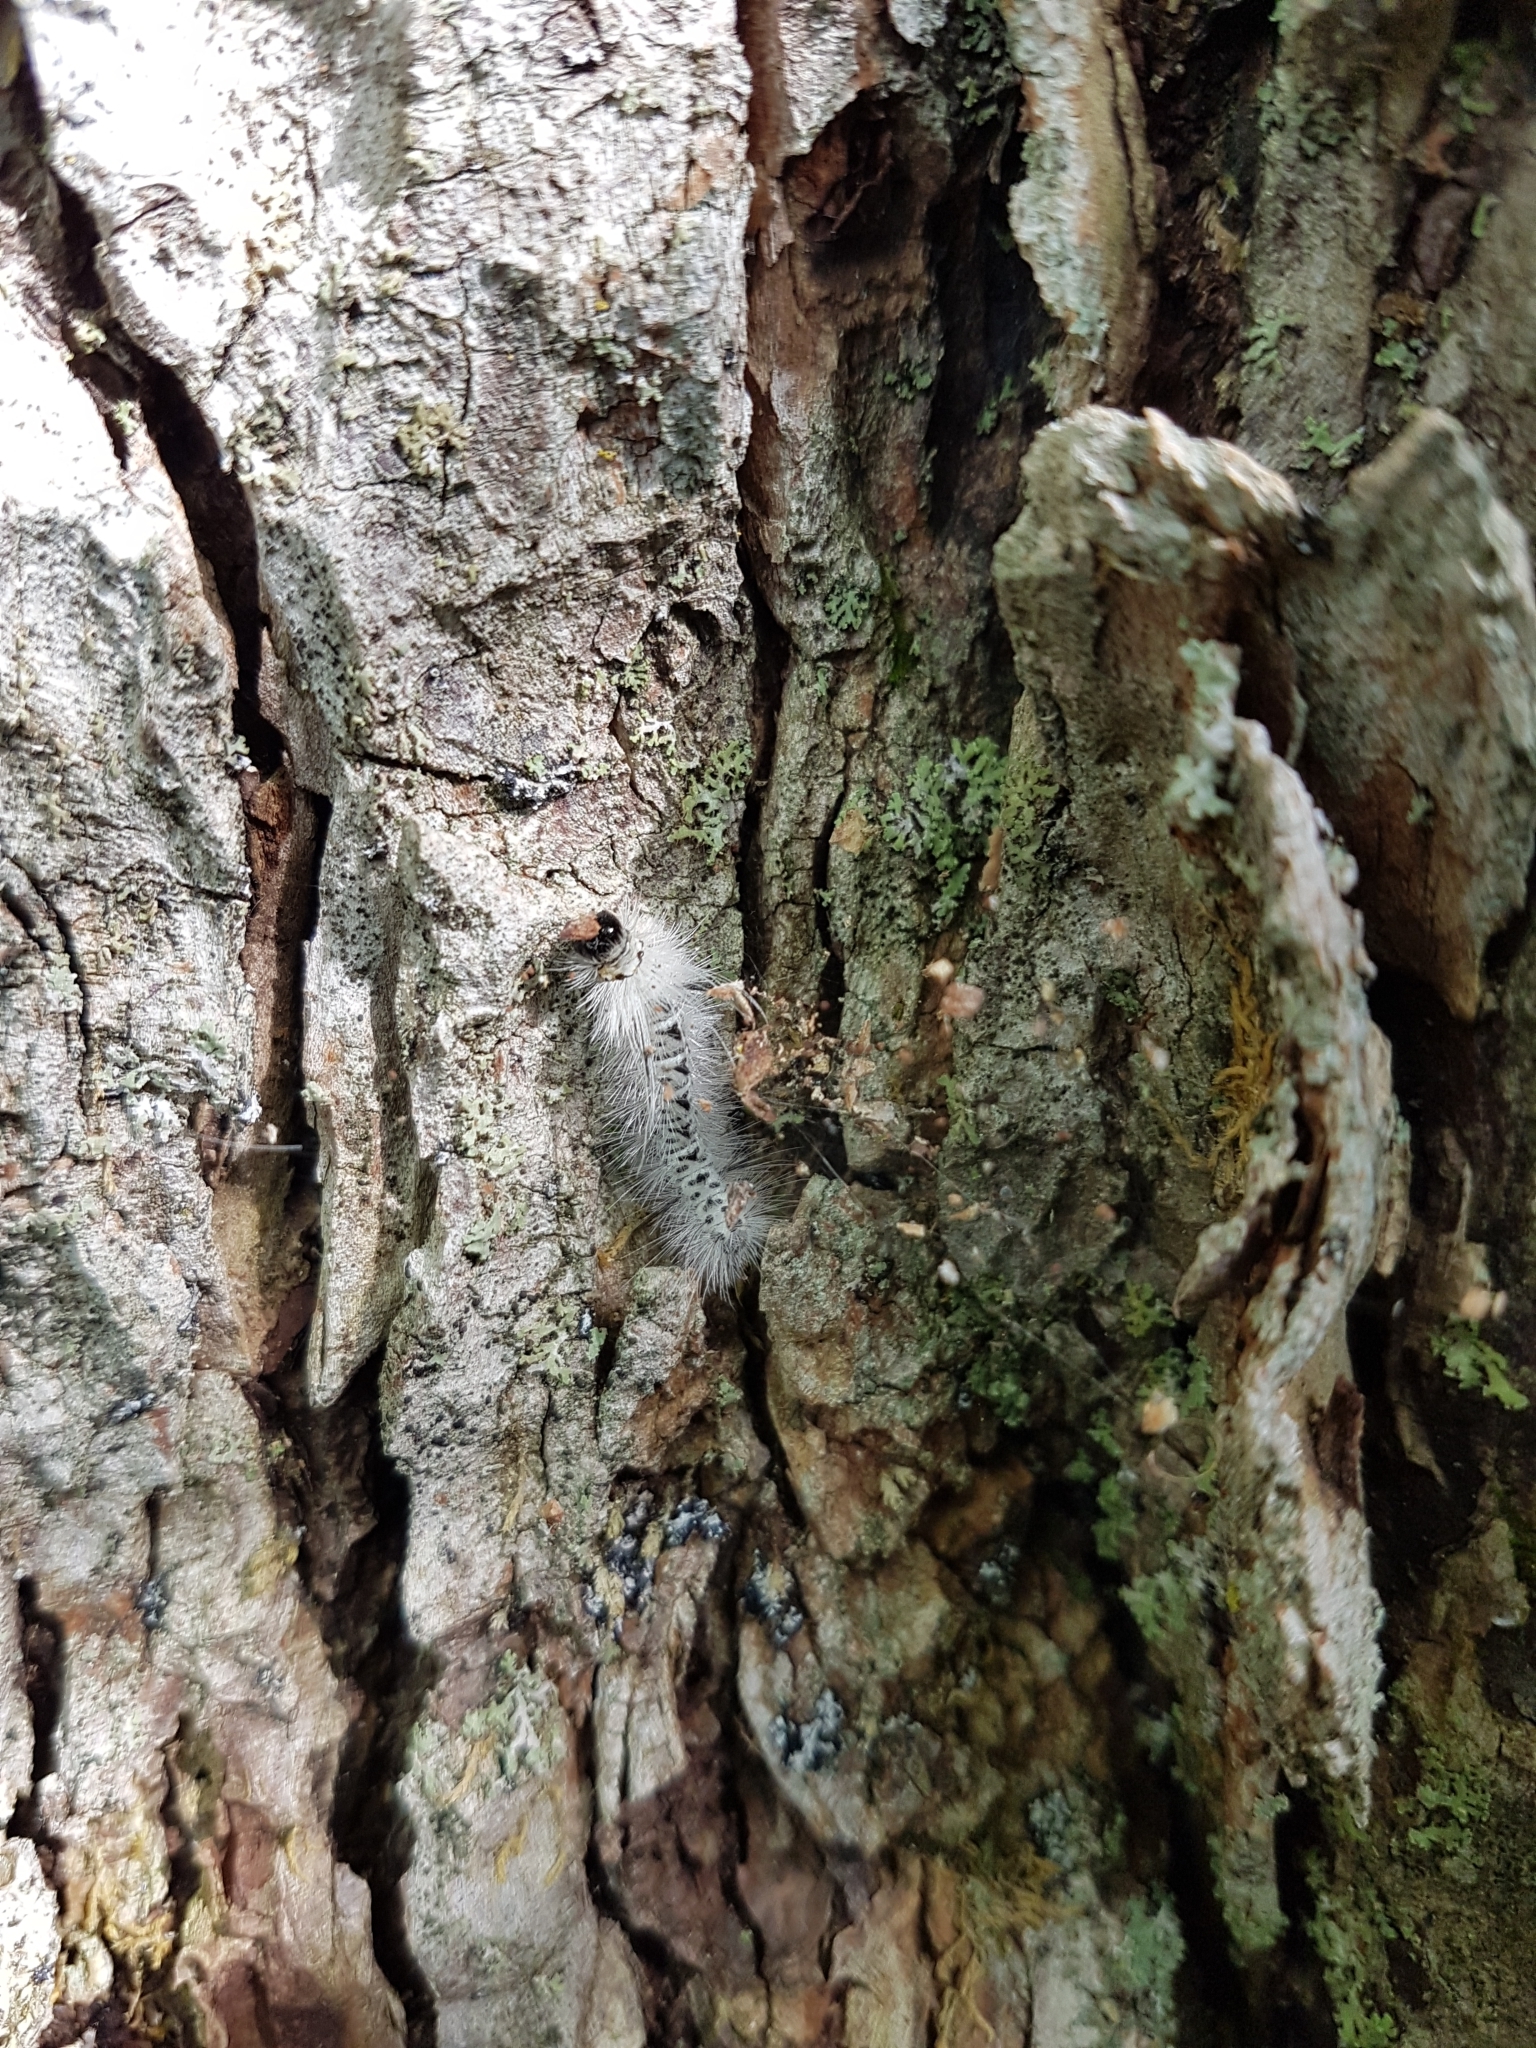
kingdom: Animalia
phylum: Arthropoda
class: Insecta
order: Lepidoptera
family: Erebidae
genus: Lophocampa
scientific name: Lophocampa caryae
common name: Hickory tussock moth
